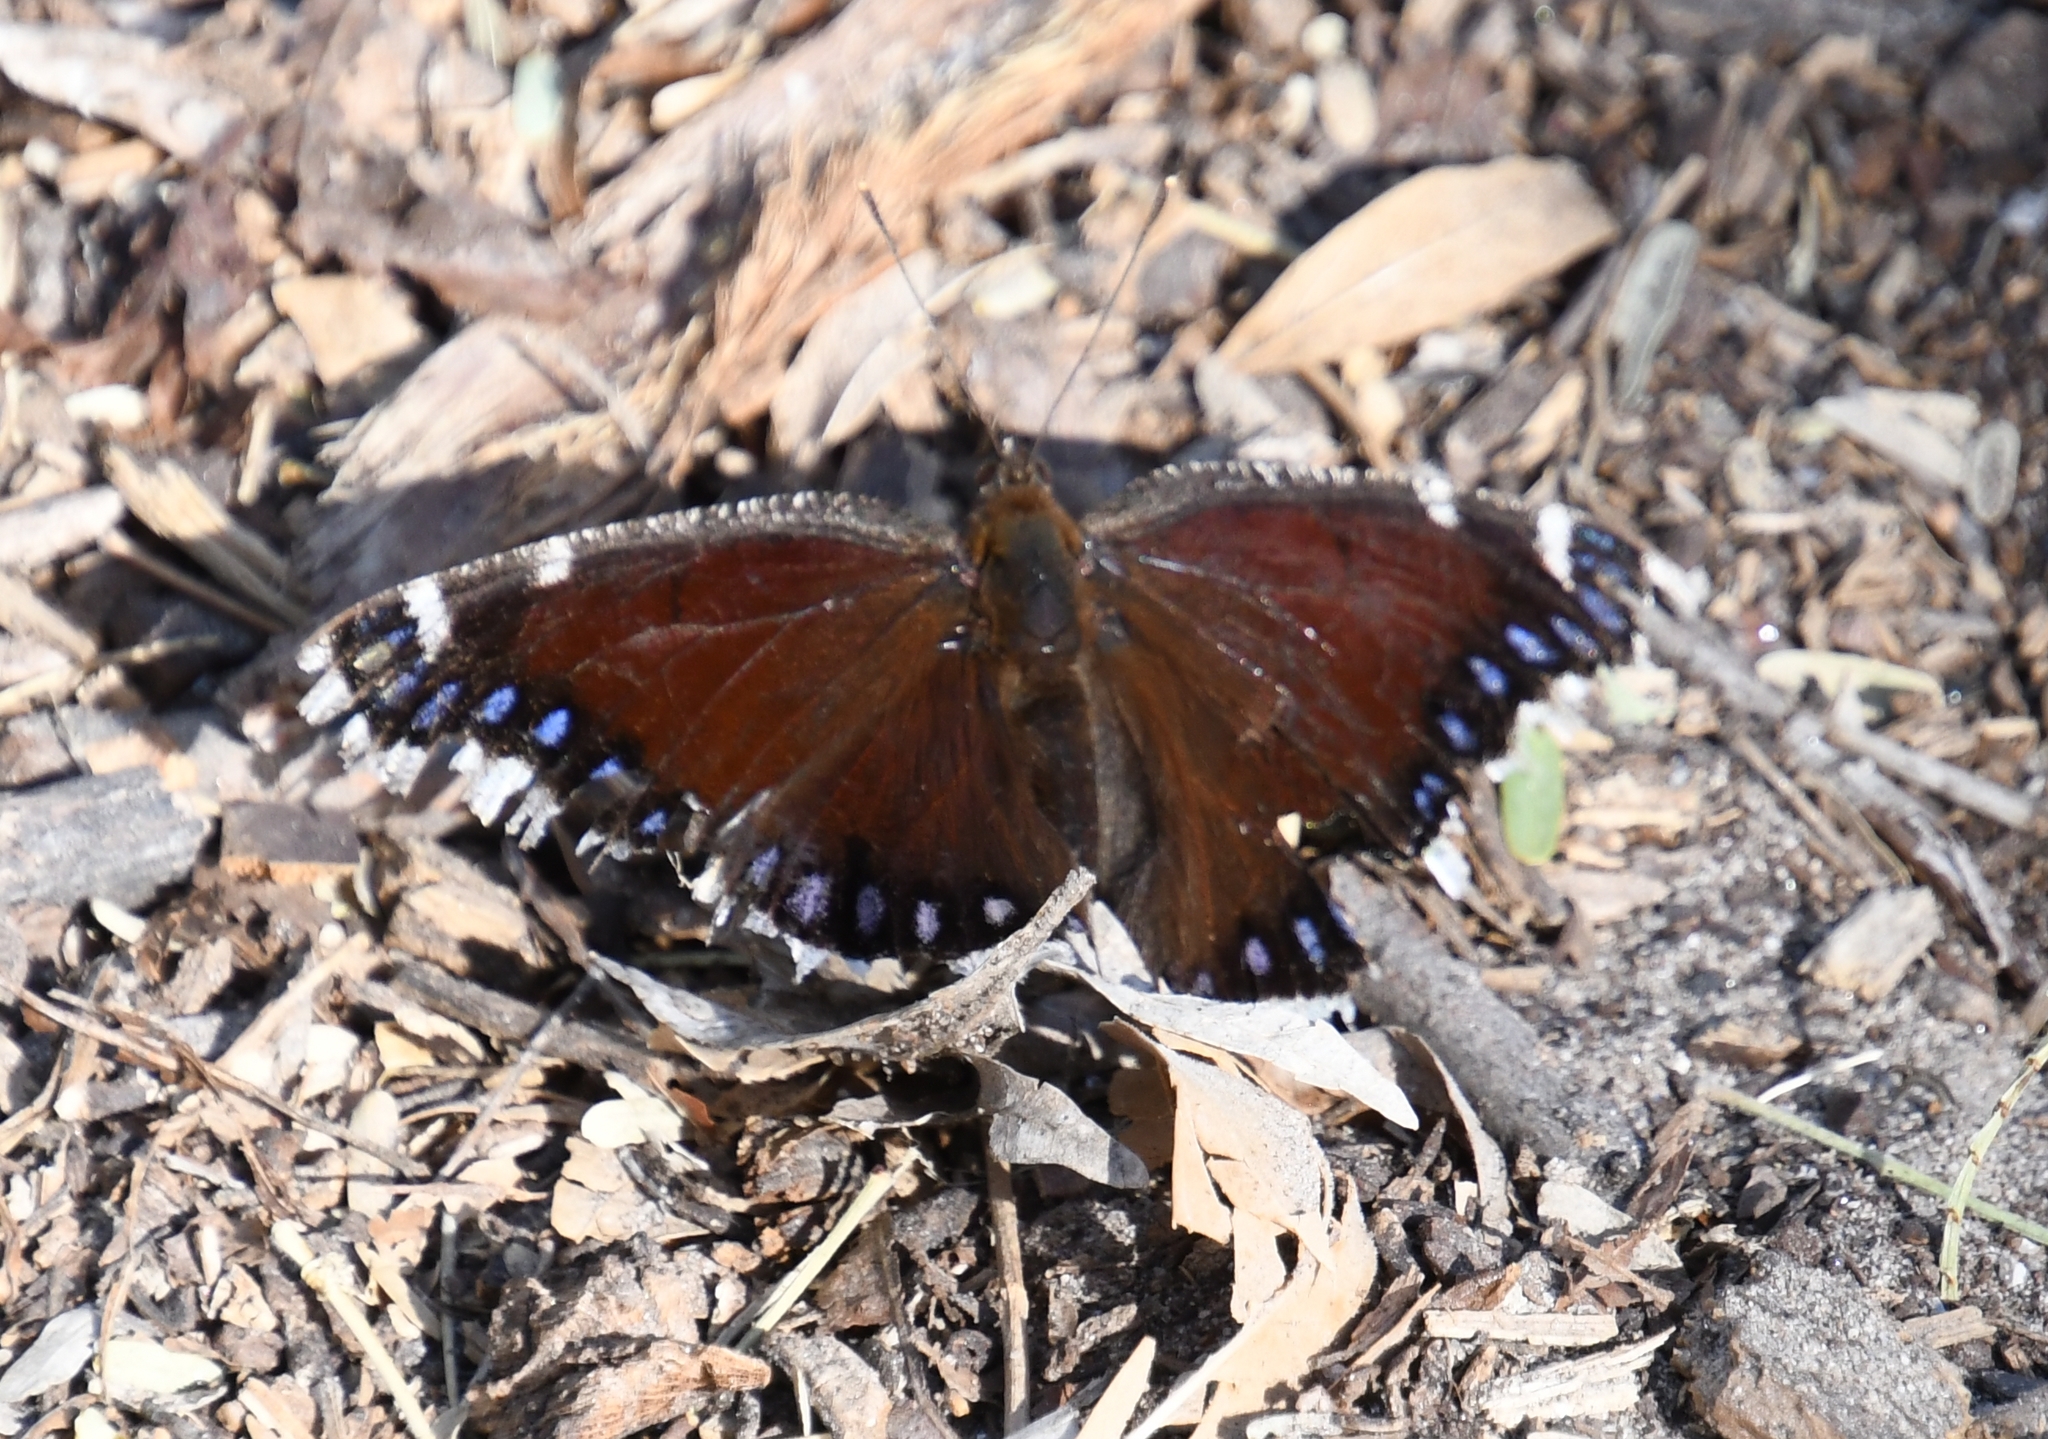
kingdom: Animalia
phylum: Arthropoda
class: Insecta
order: Lepidoptera
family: Nymphalidae
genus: Nymphalis
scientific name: Nymphalis antiopa
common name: Camberwell beauty
